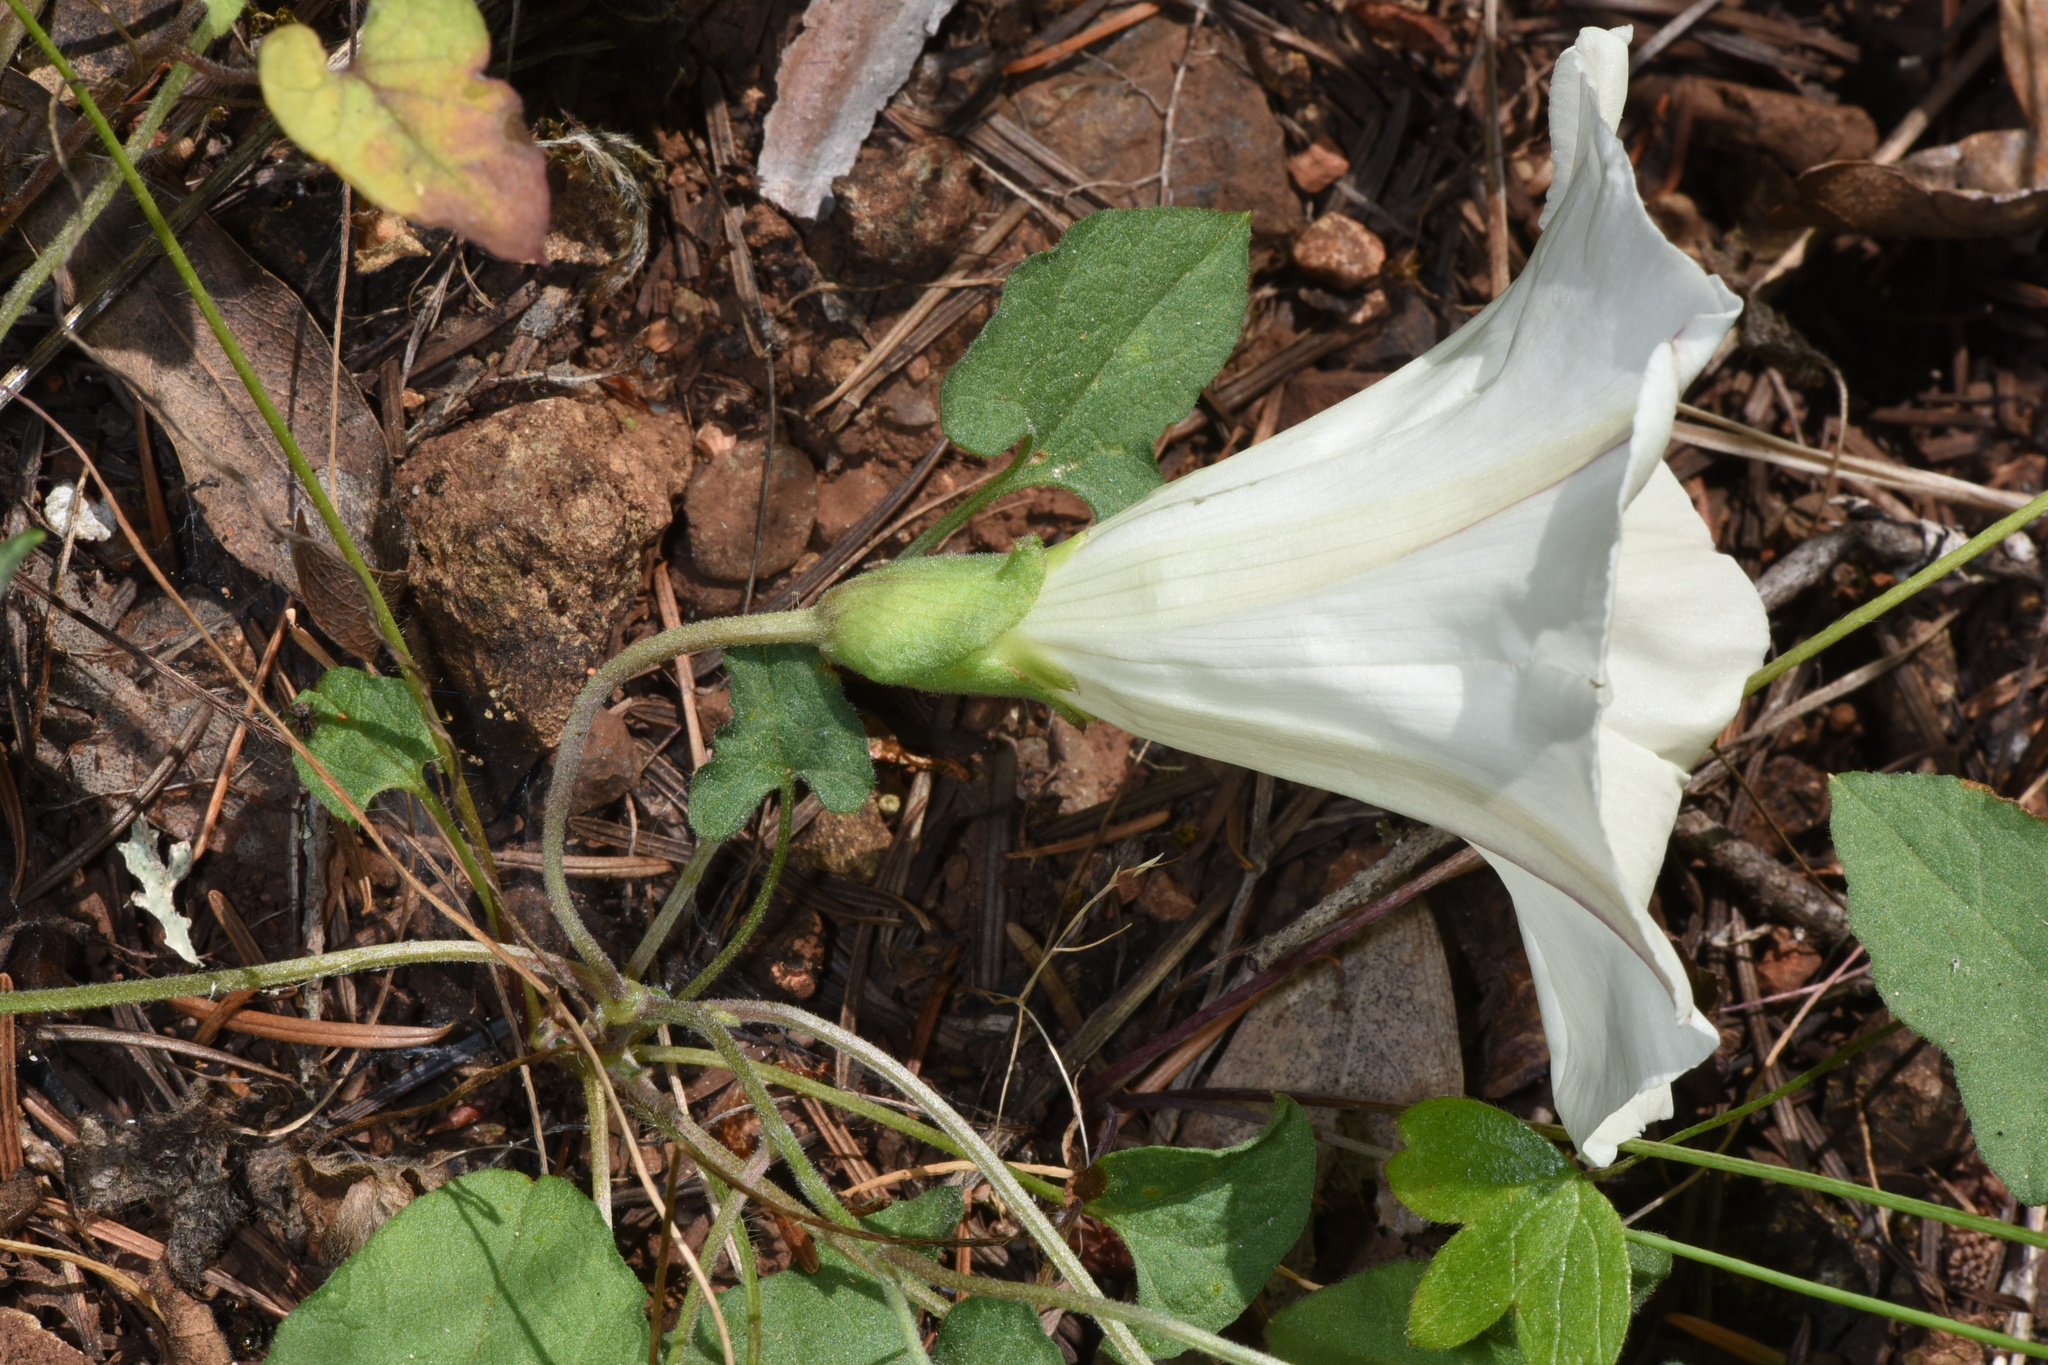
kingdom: Plantae
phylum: Tracheophyta
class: Magnoliopsida
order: Solanales
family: Convolvulaceae
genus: Calystegia
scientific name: Calystegia subacaulis
